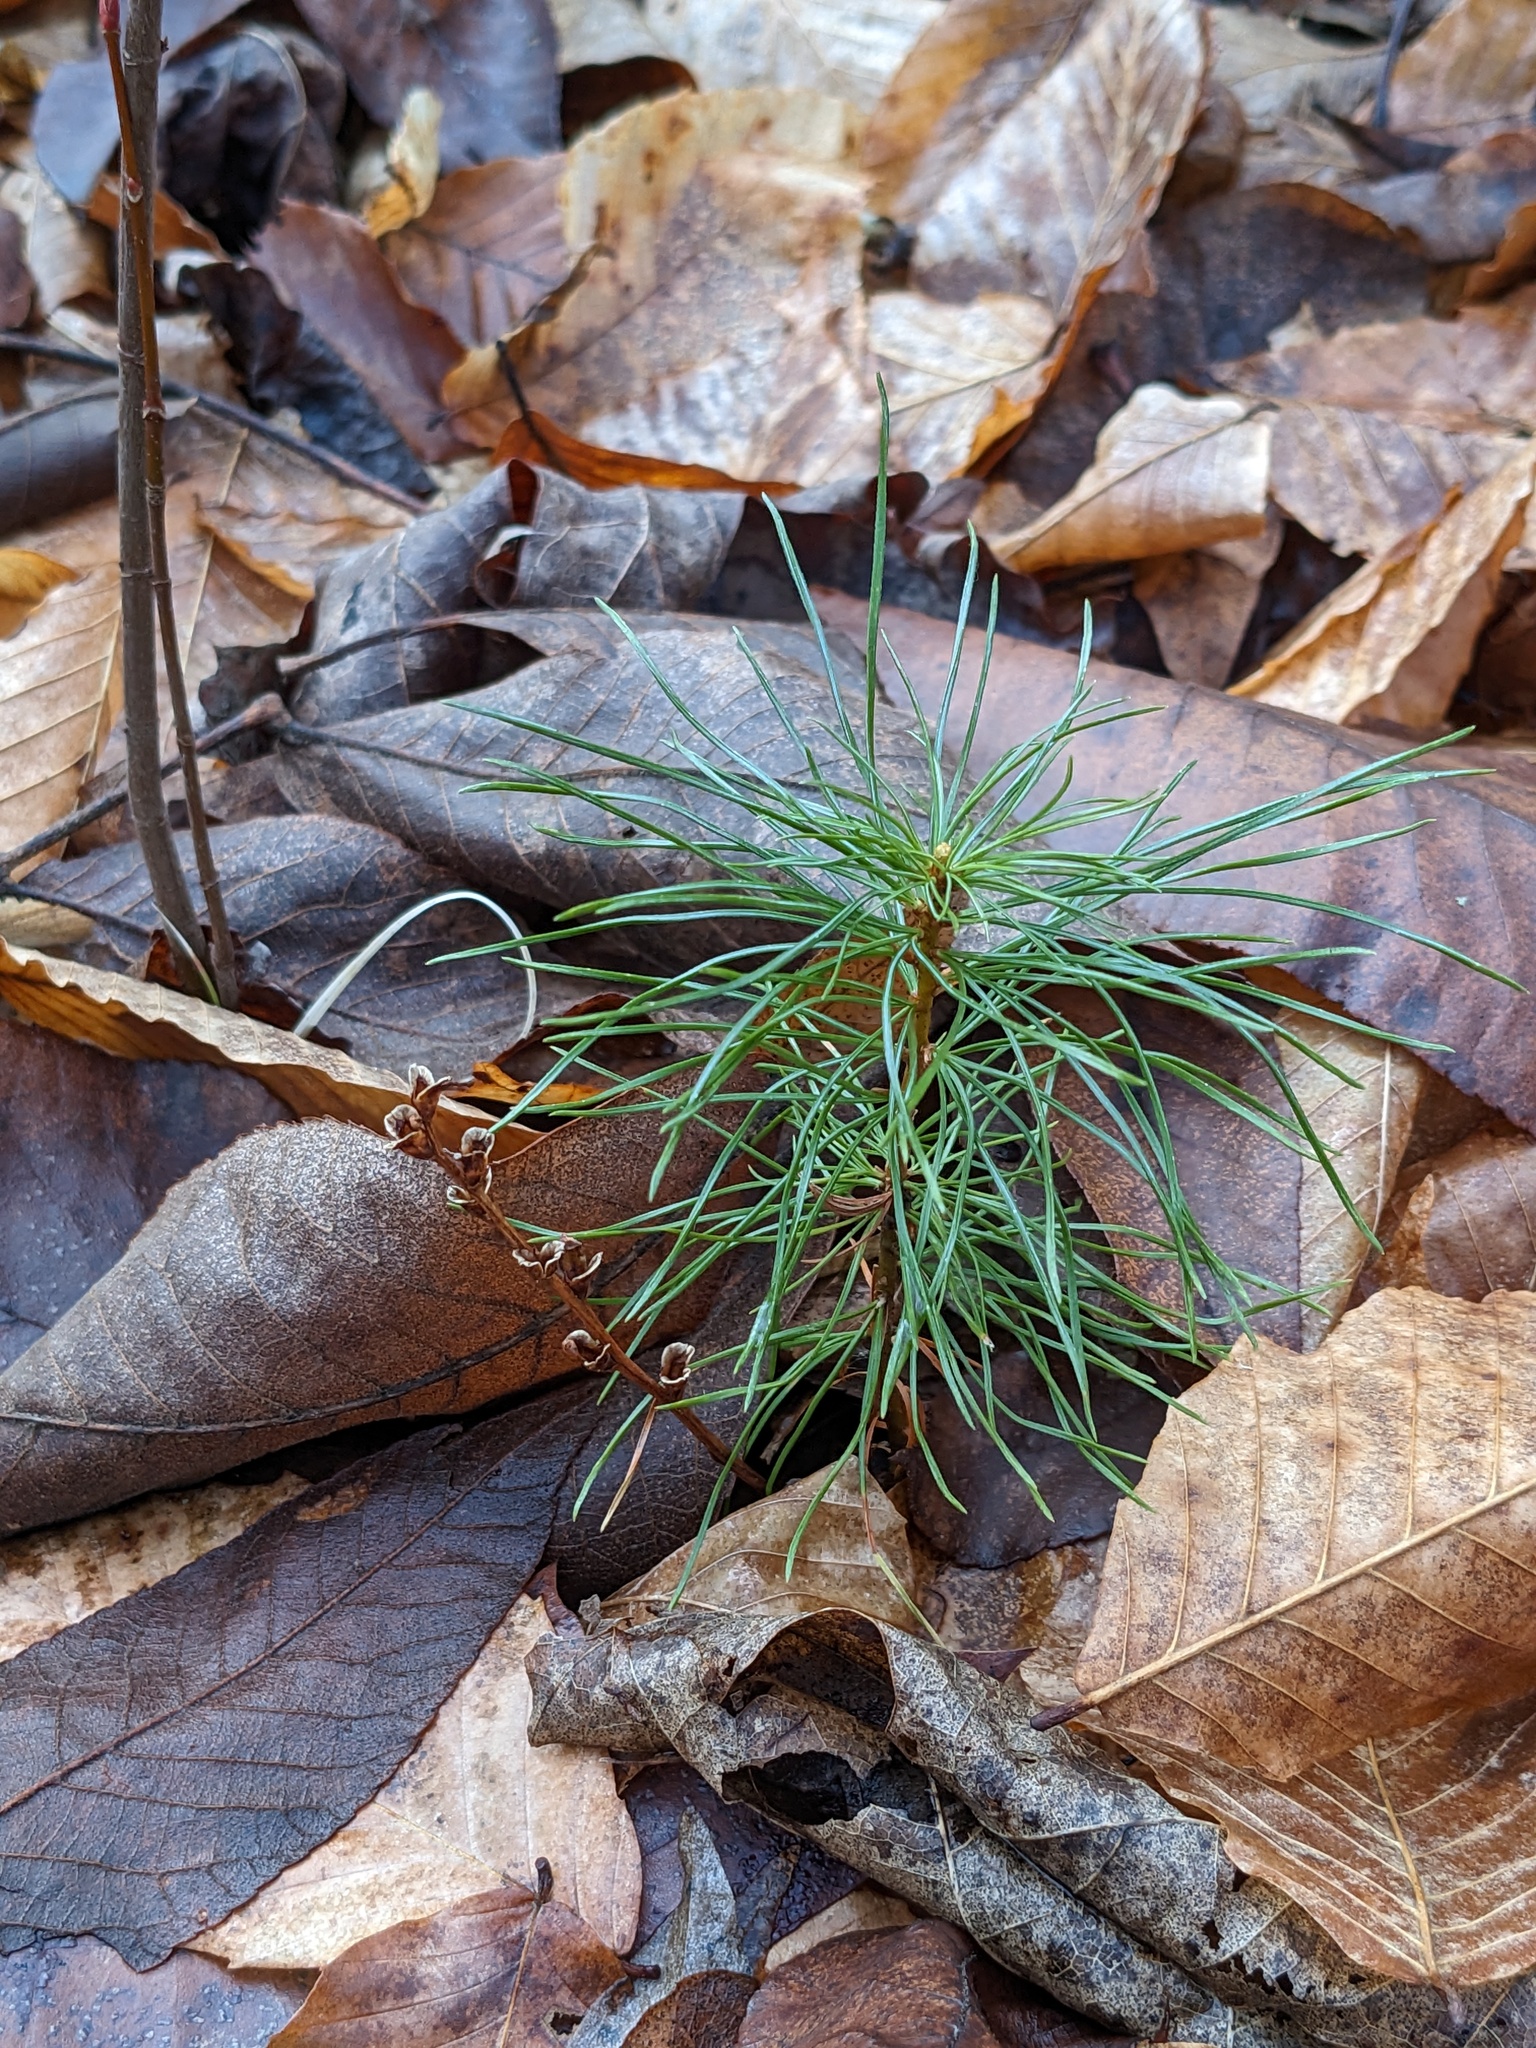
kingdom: Plantae
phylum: Tracheophyta
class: Pinopsida
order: Pinales
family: Pinaceae
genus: Pinus
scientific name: Pinus strobus
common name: Weymouth pine
